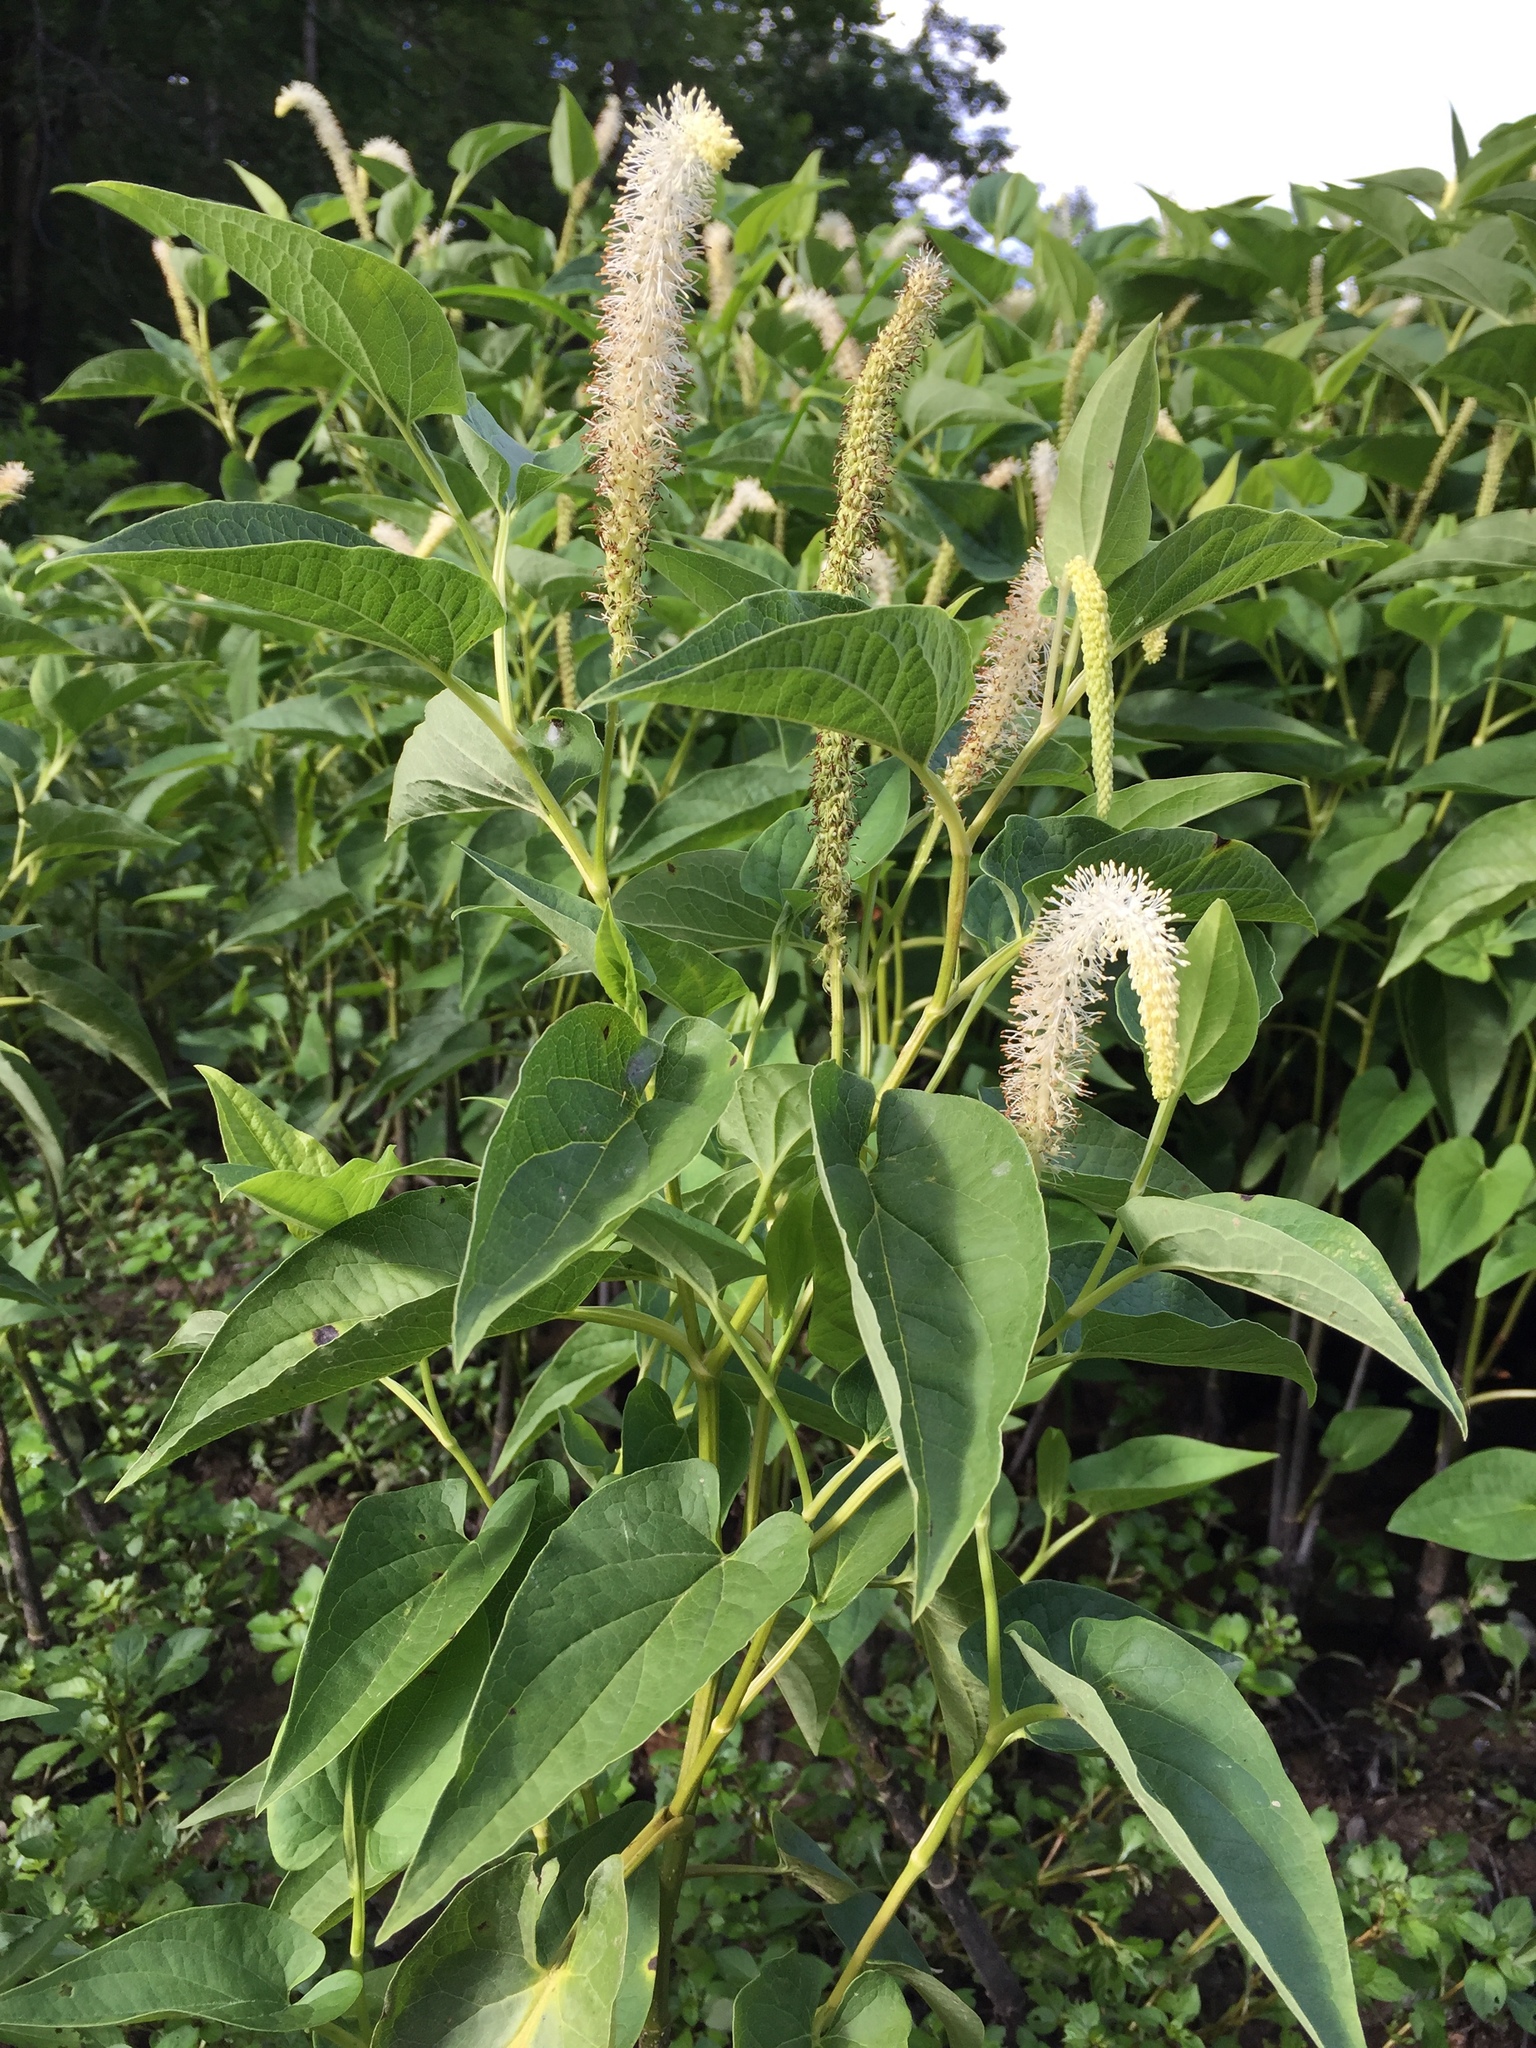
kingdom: Plantae
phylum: Tracheophyta
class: Magnoliopsida
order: Piperales
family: Saururaceae
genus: Saururus
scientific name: Saururus cernuus
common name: Lizard's-tail
